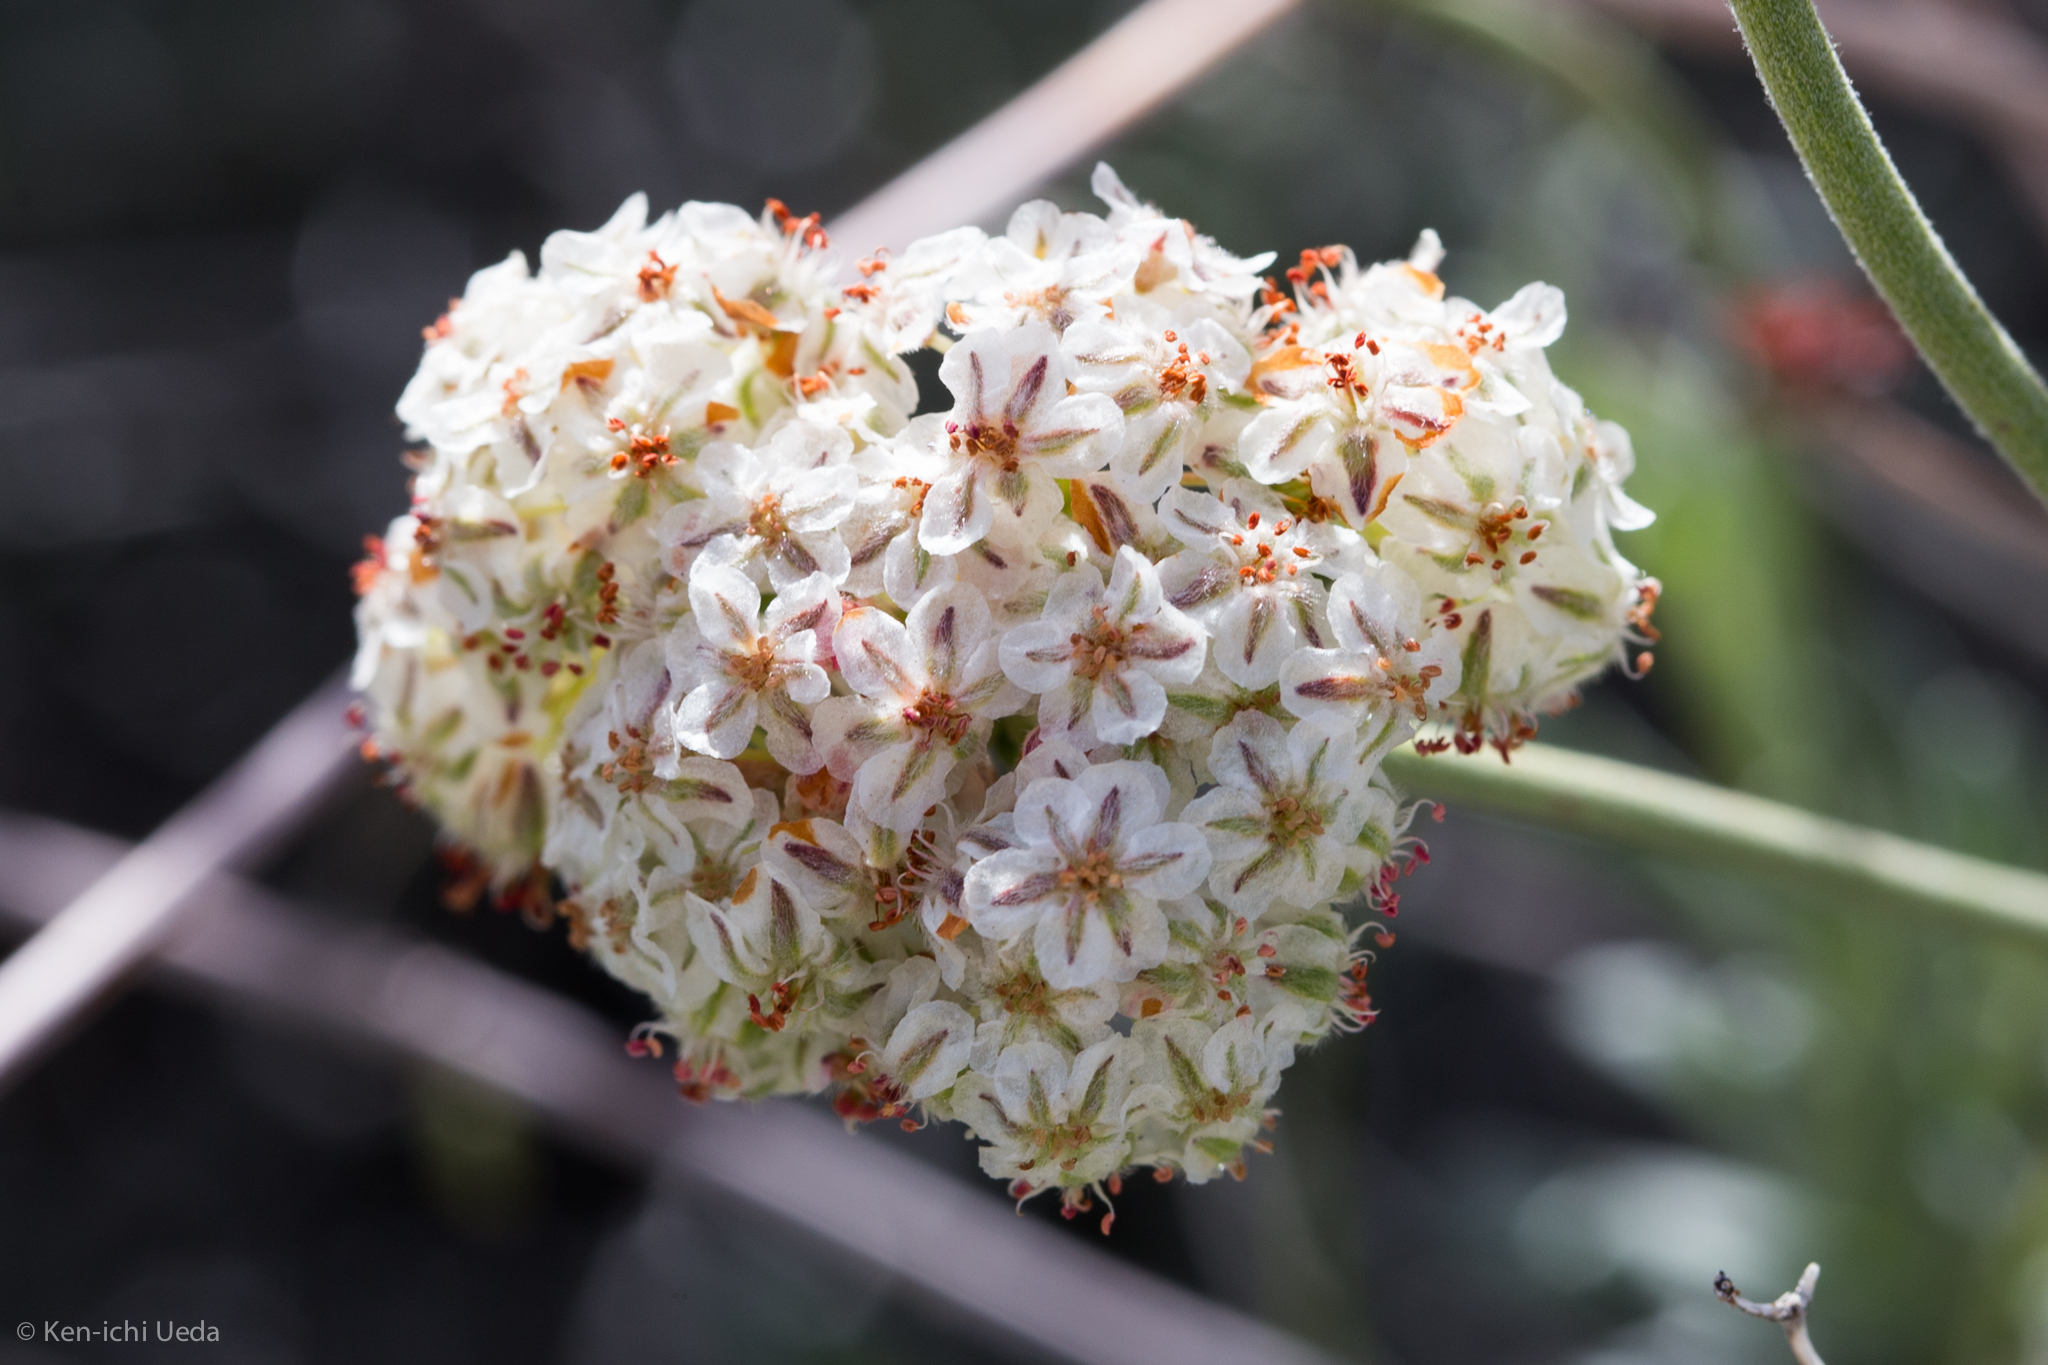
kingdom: Plantae
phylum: Tracheophyta
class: Magnoliopsida
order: Caryophyllales
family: Polygonaceae
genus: Eriogonum
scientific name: Eriogonum fasciculatum
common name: California wild buckwheat
